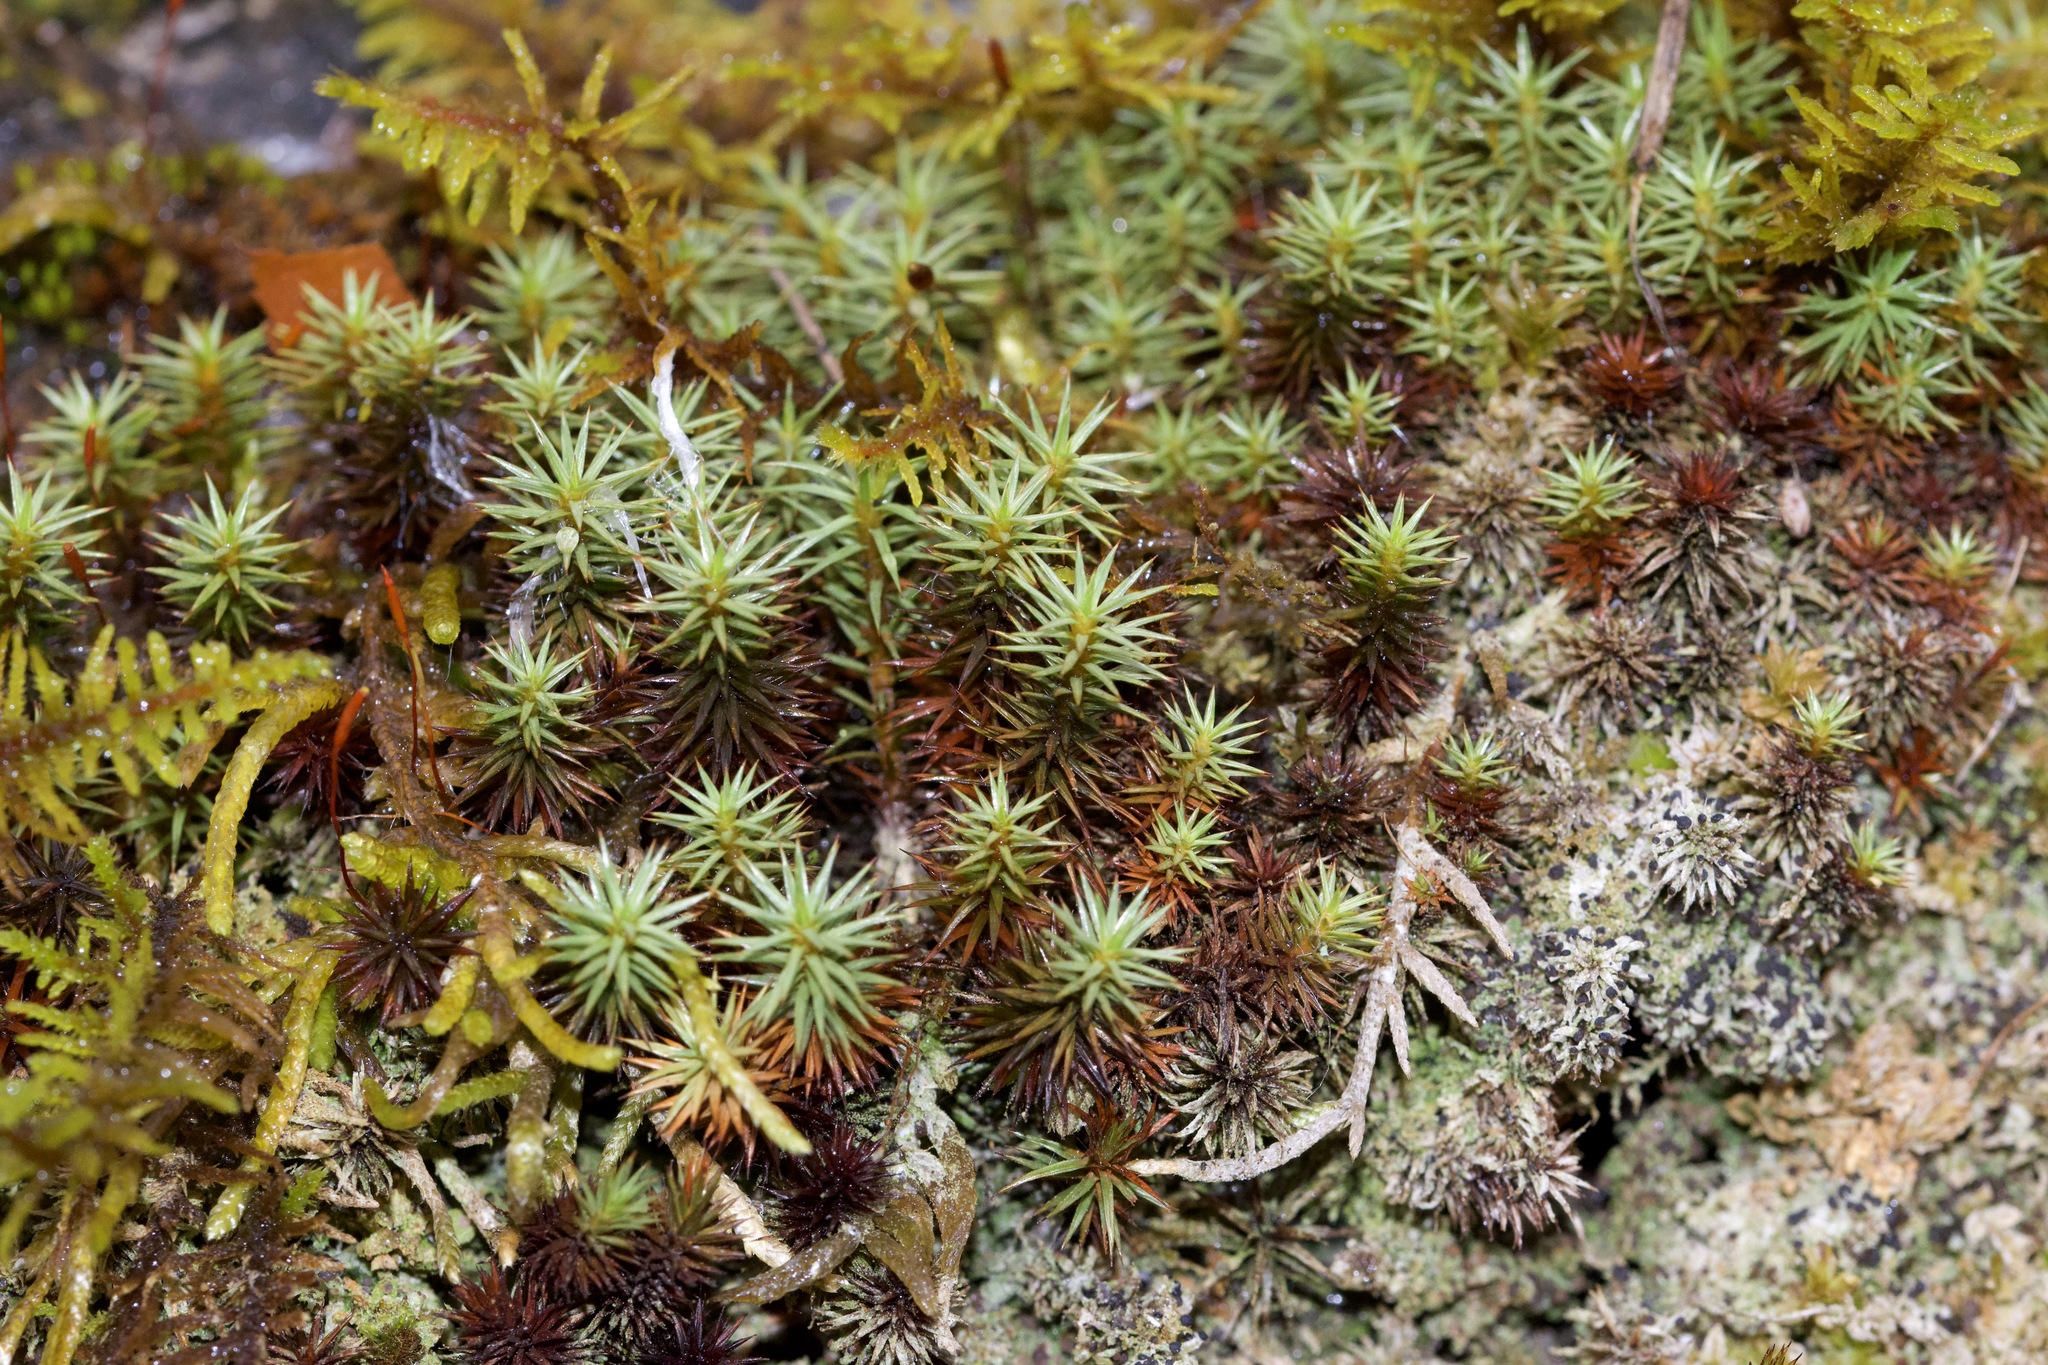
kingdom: Plantae
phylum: Bryophyta
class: Polytrichopsida
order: Polytrichales
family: Polytrichaceae
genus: Polytrichum
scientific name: Polytrichum juniperinum
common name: Juniper haircap moss
